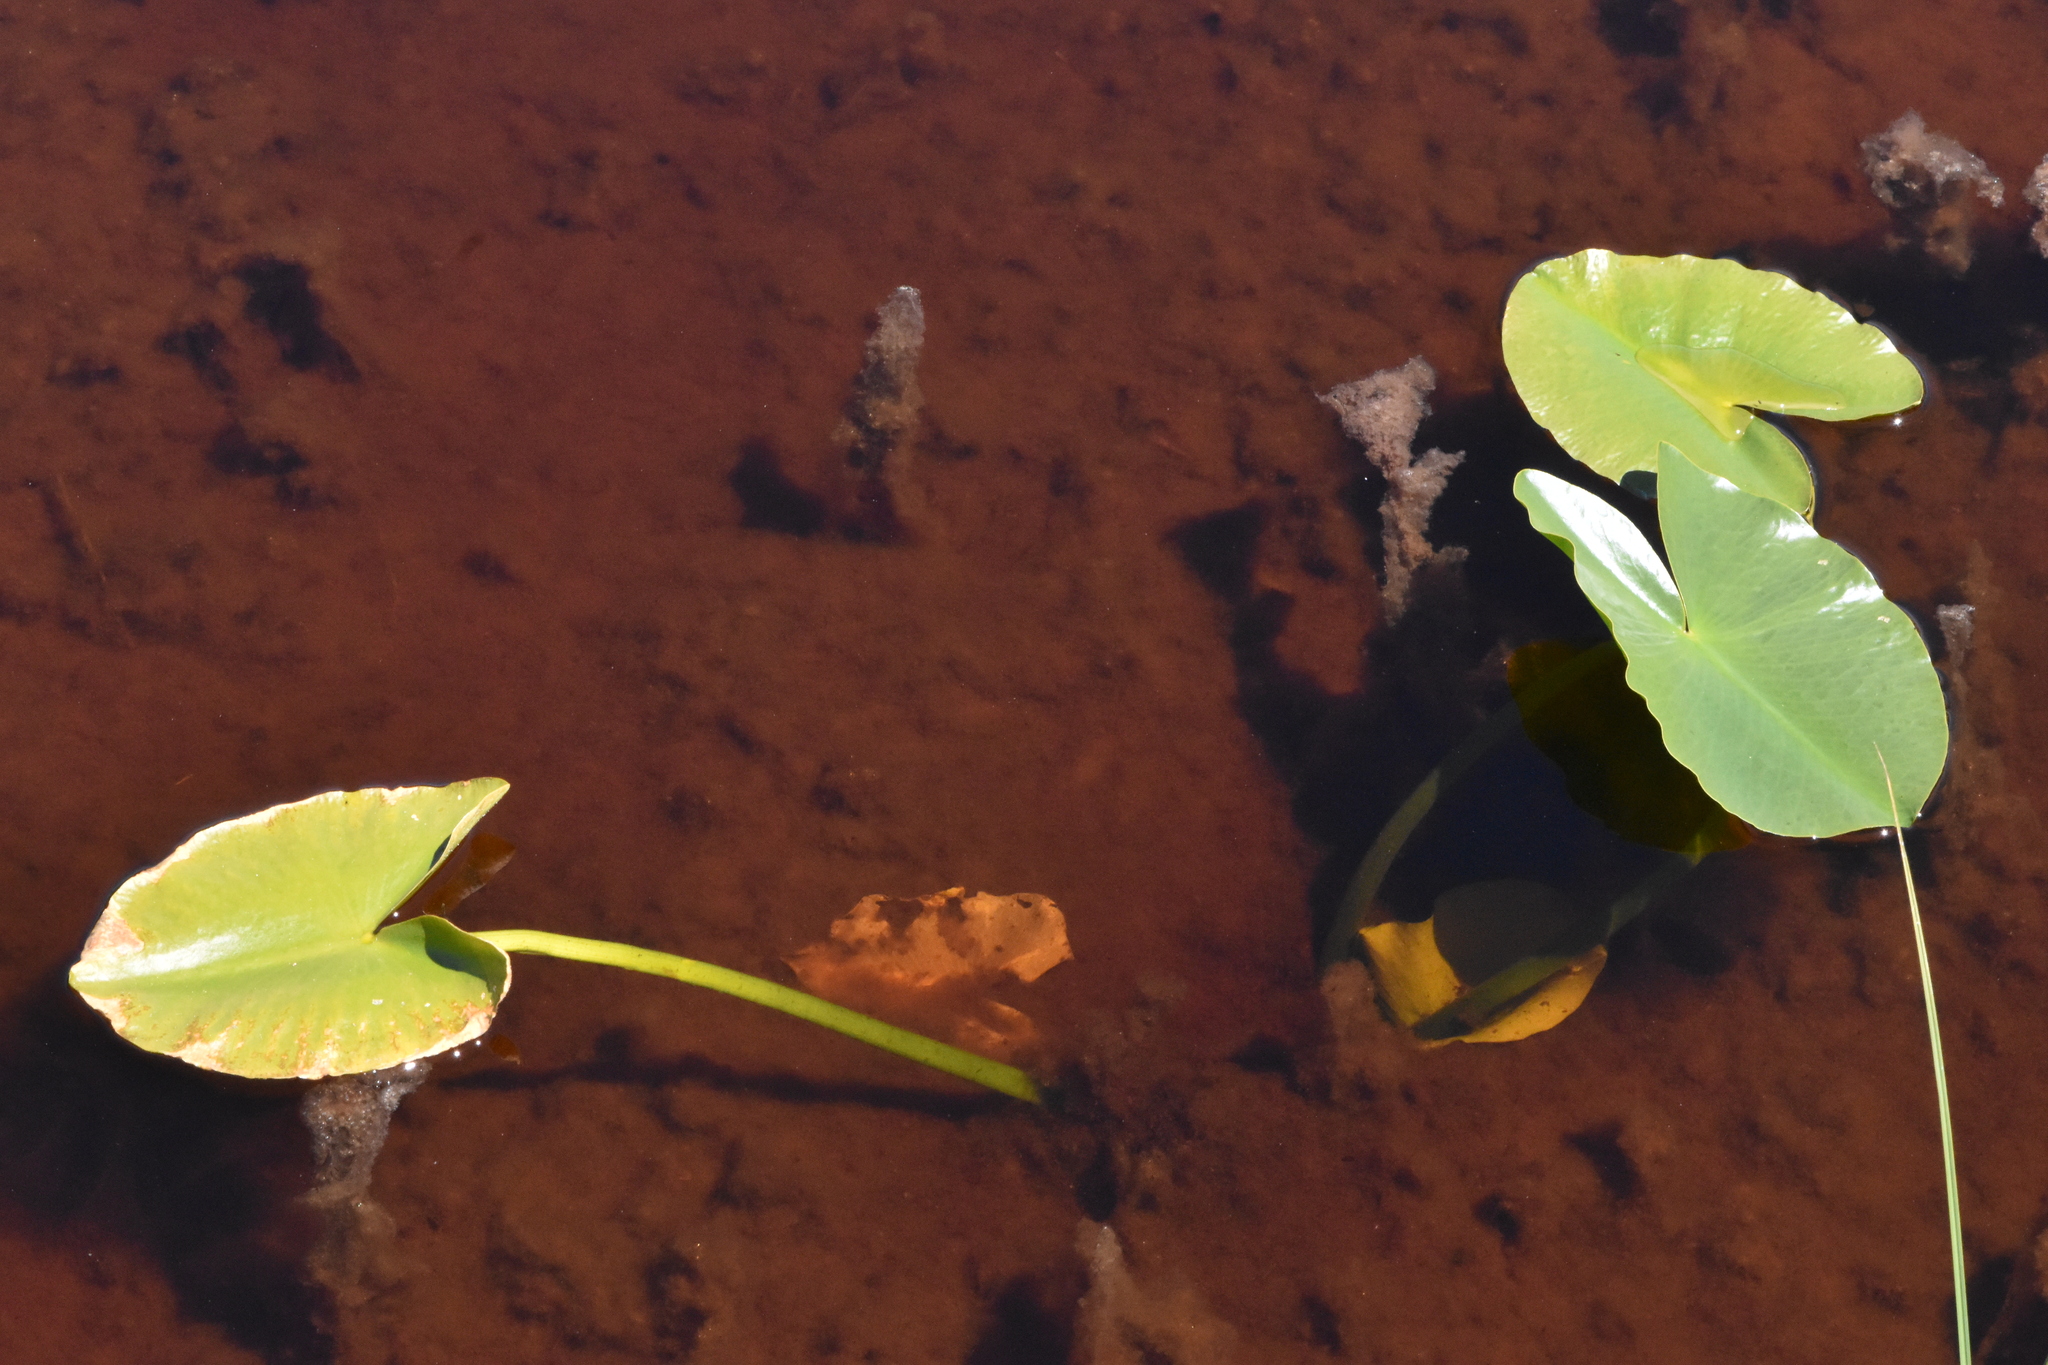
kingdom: Plantae
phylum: Tracheophyta
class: Magnoliopsida
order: Nymphaeales
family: Nymphaeaceae
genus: Nuphar
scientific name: Nuphar polysepala
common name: Rocky mountain cow-lily
